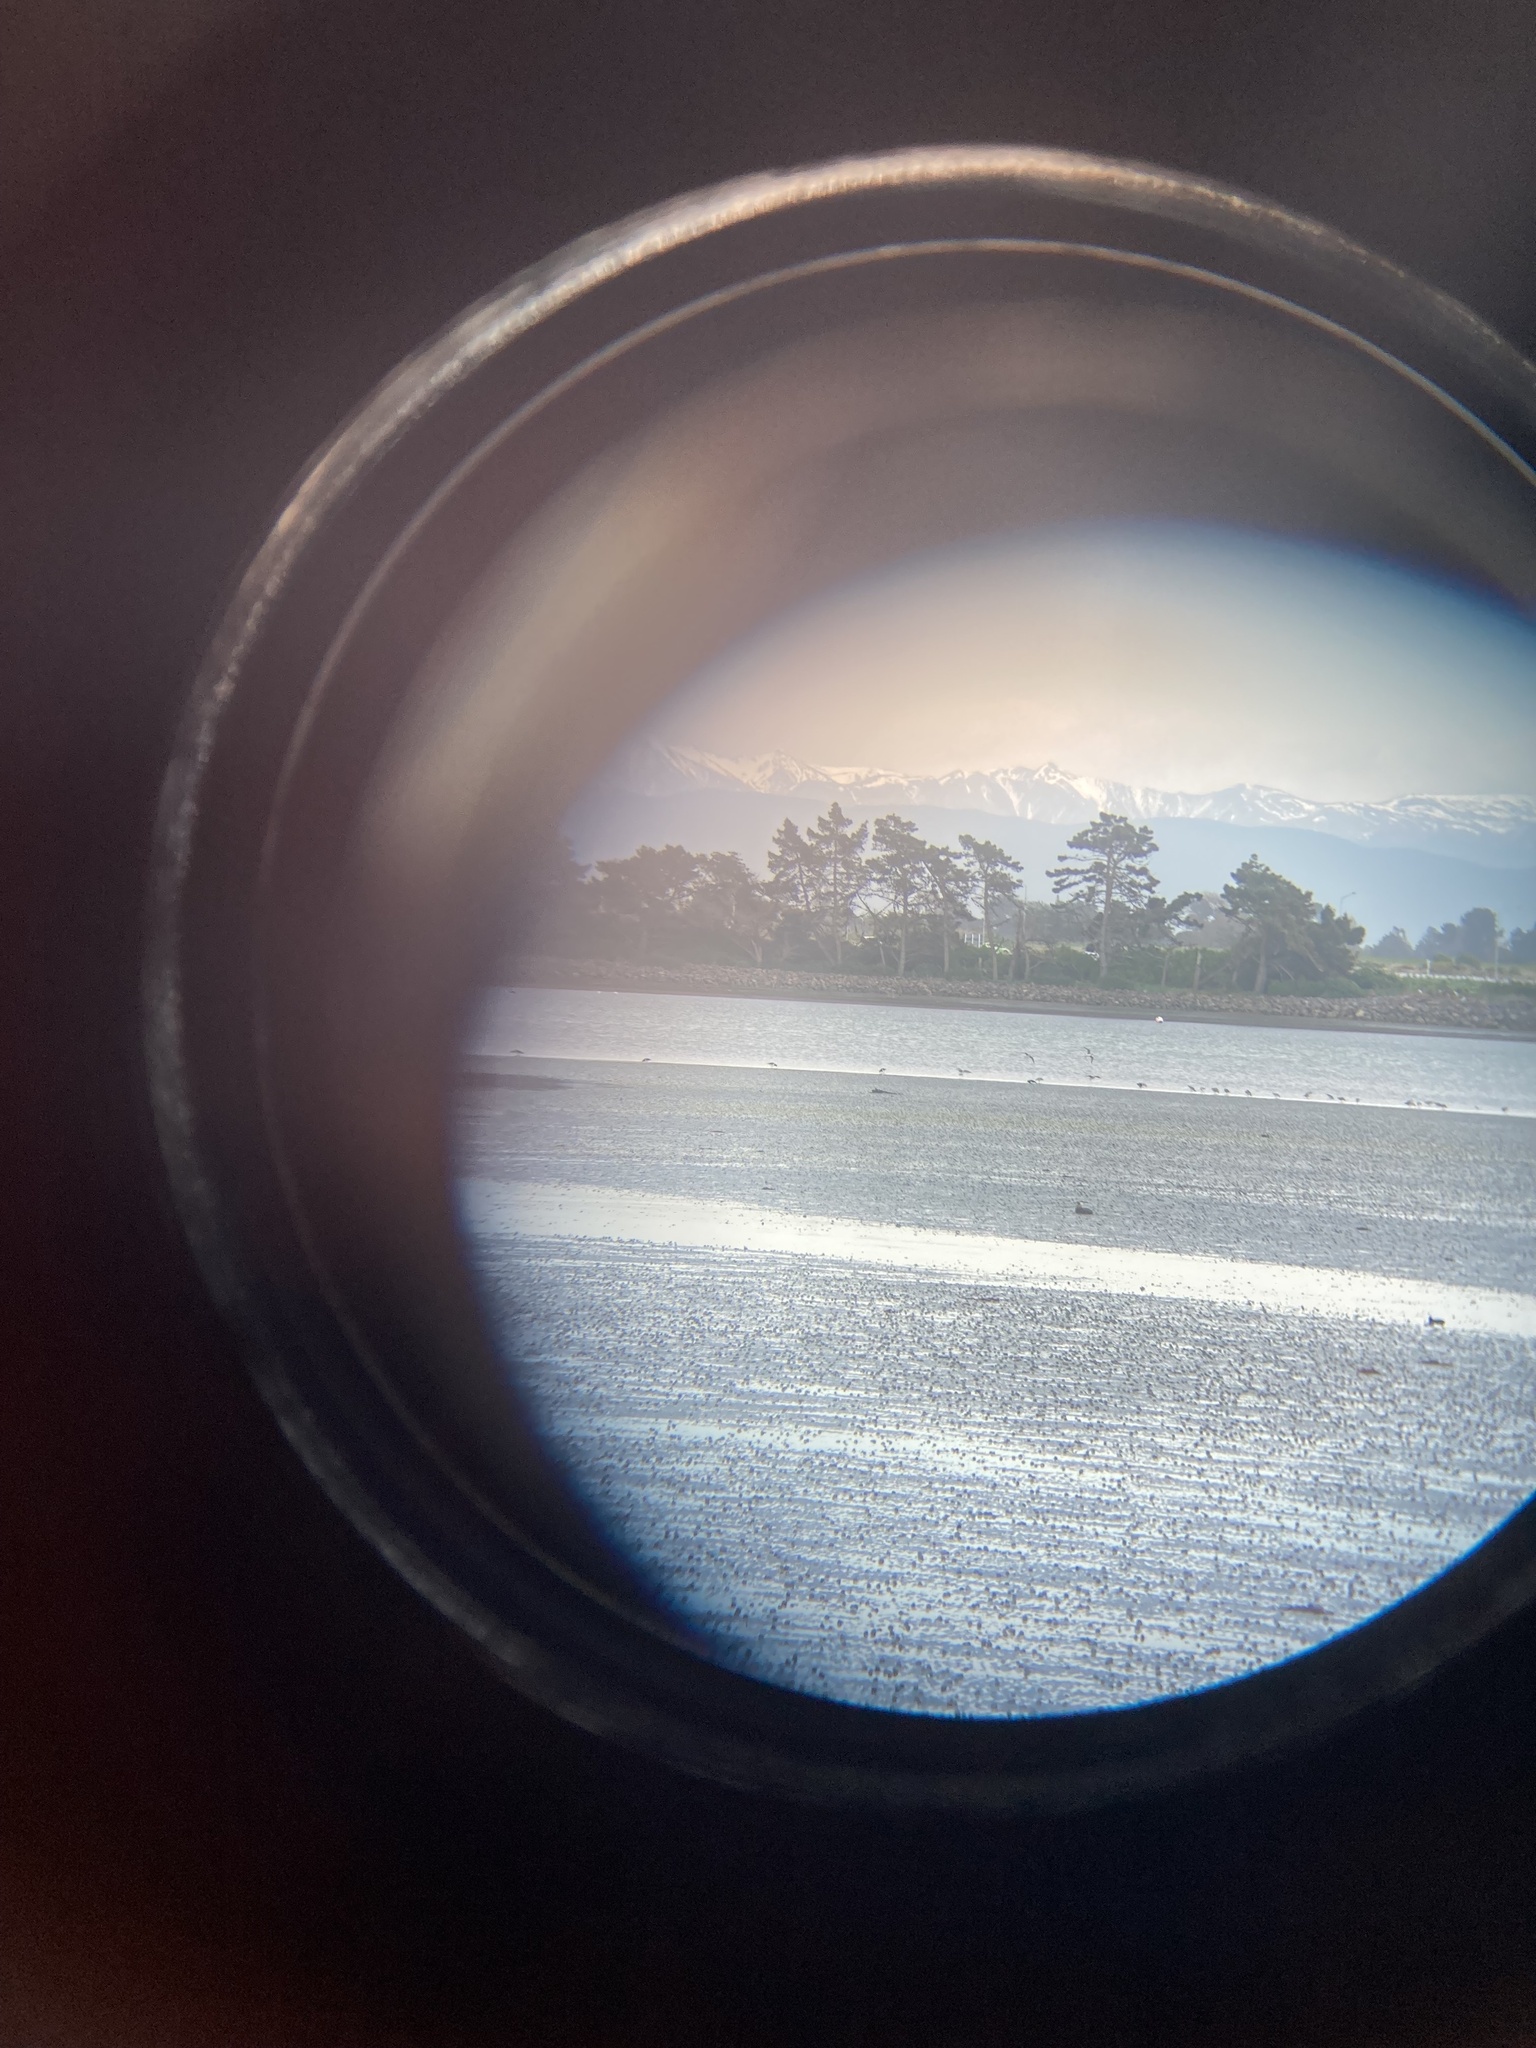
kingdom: Animalia
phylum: Chordata
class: Aves
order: Charadriiformes
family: Scolopacidae
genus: Limosa
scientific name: Limosa lapponica
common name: Bar-tailed godwit
